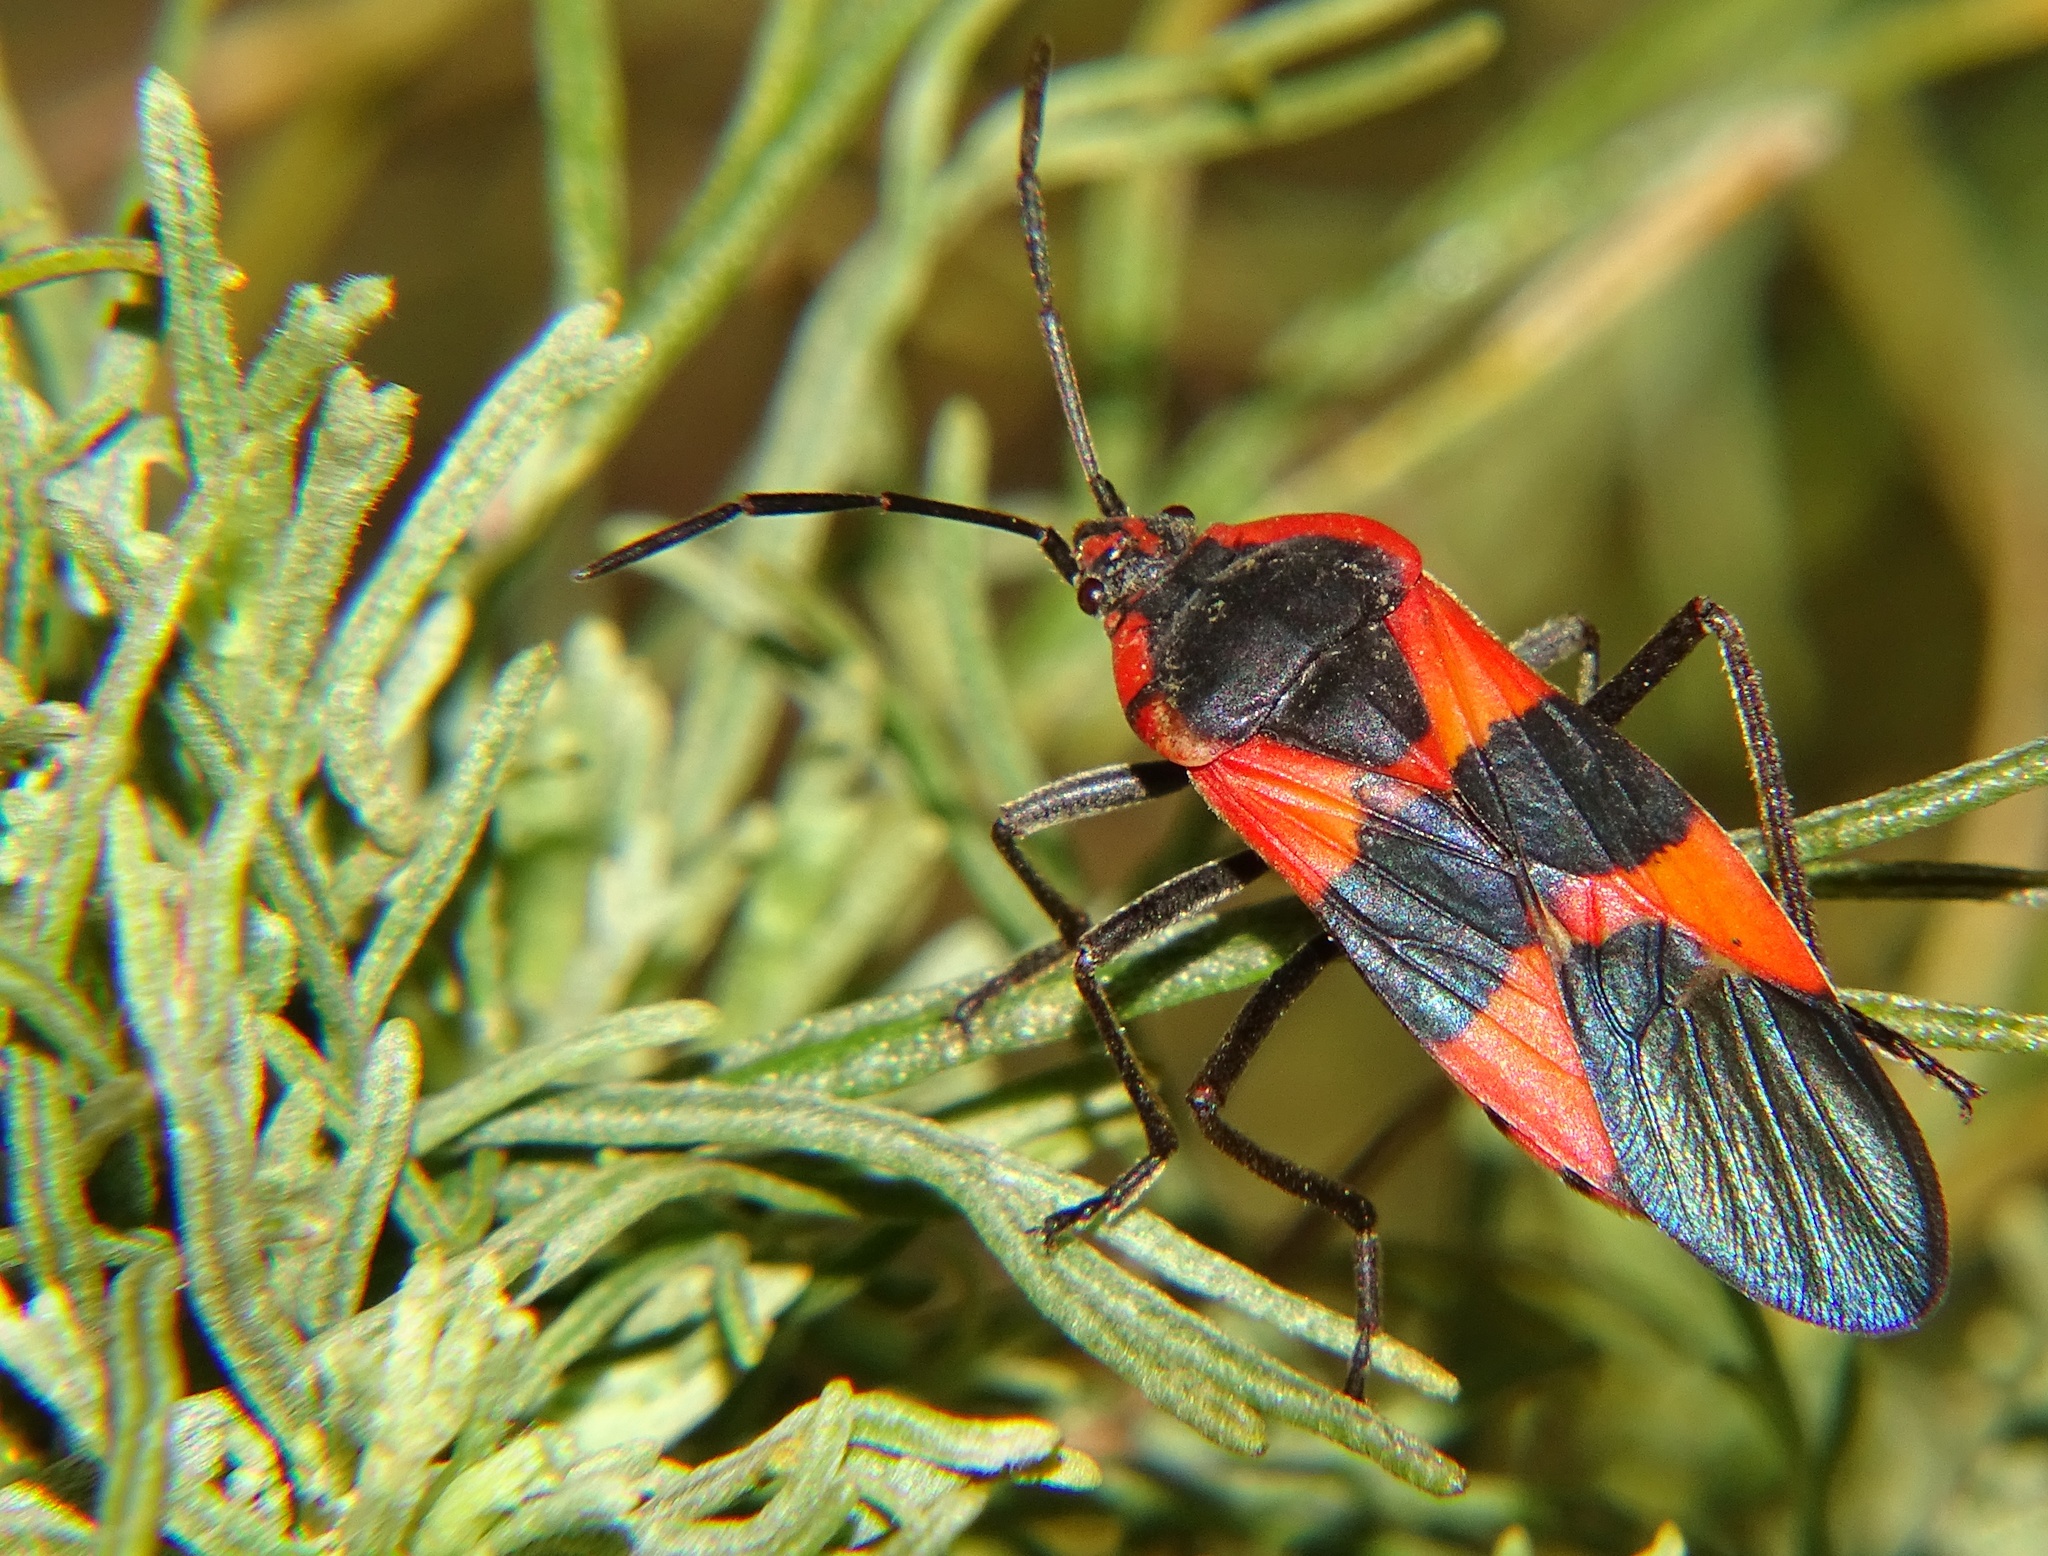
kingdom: Animalia
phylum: Arthropoda
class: Insecta
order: Hemiptera
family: Lygaeidae
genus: Oncopeltus
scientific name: Oncopeltus fasciatus
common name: Large milkweed bug
